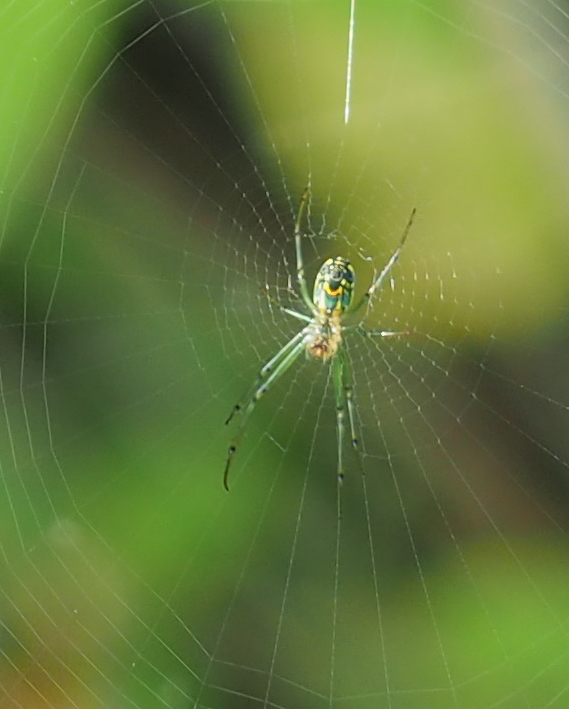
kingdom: Animalia
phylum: Arthropoda
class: Arachnida
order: Araneae
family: Tetragnathidae
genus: Leucauge
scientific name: Leucauge venusta
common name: Longjawed orb weavers
